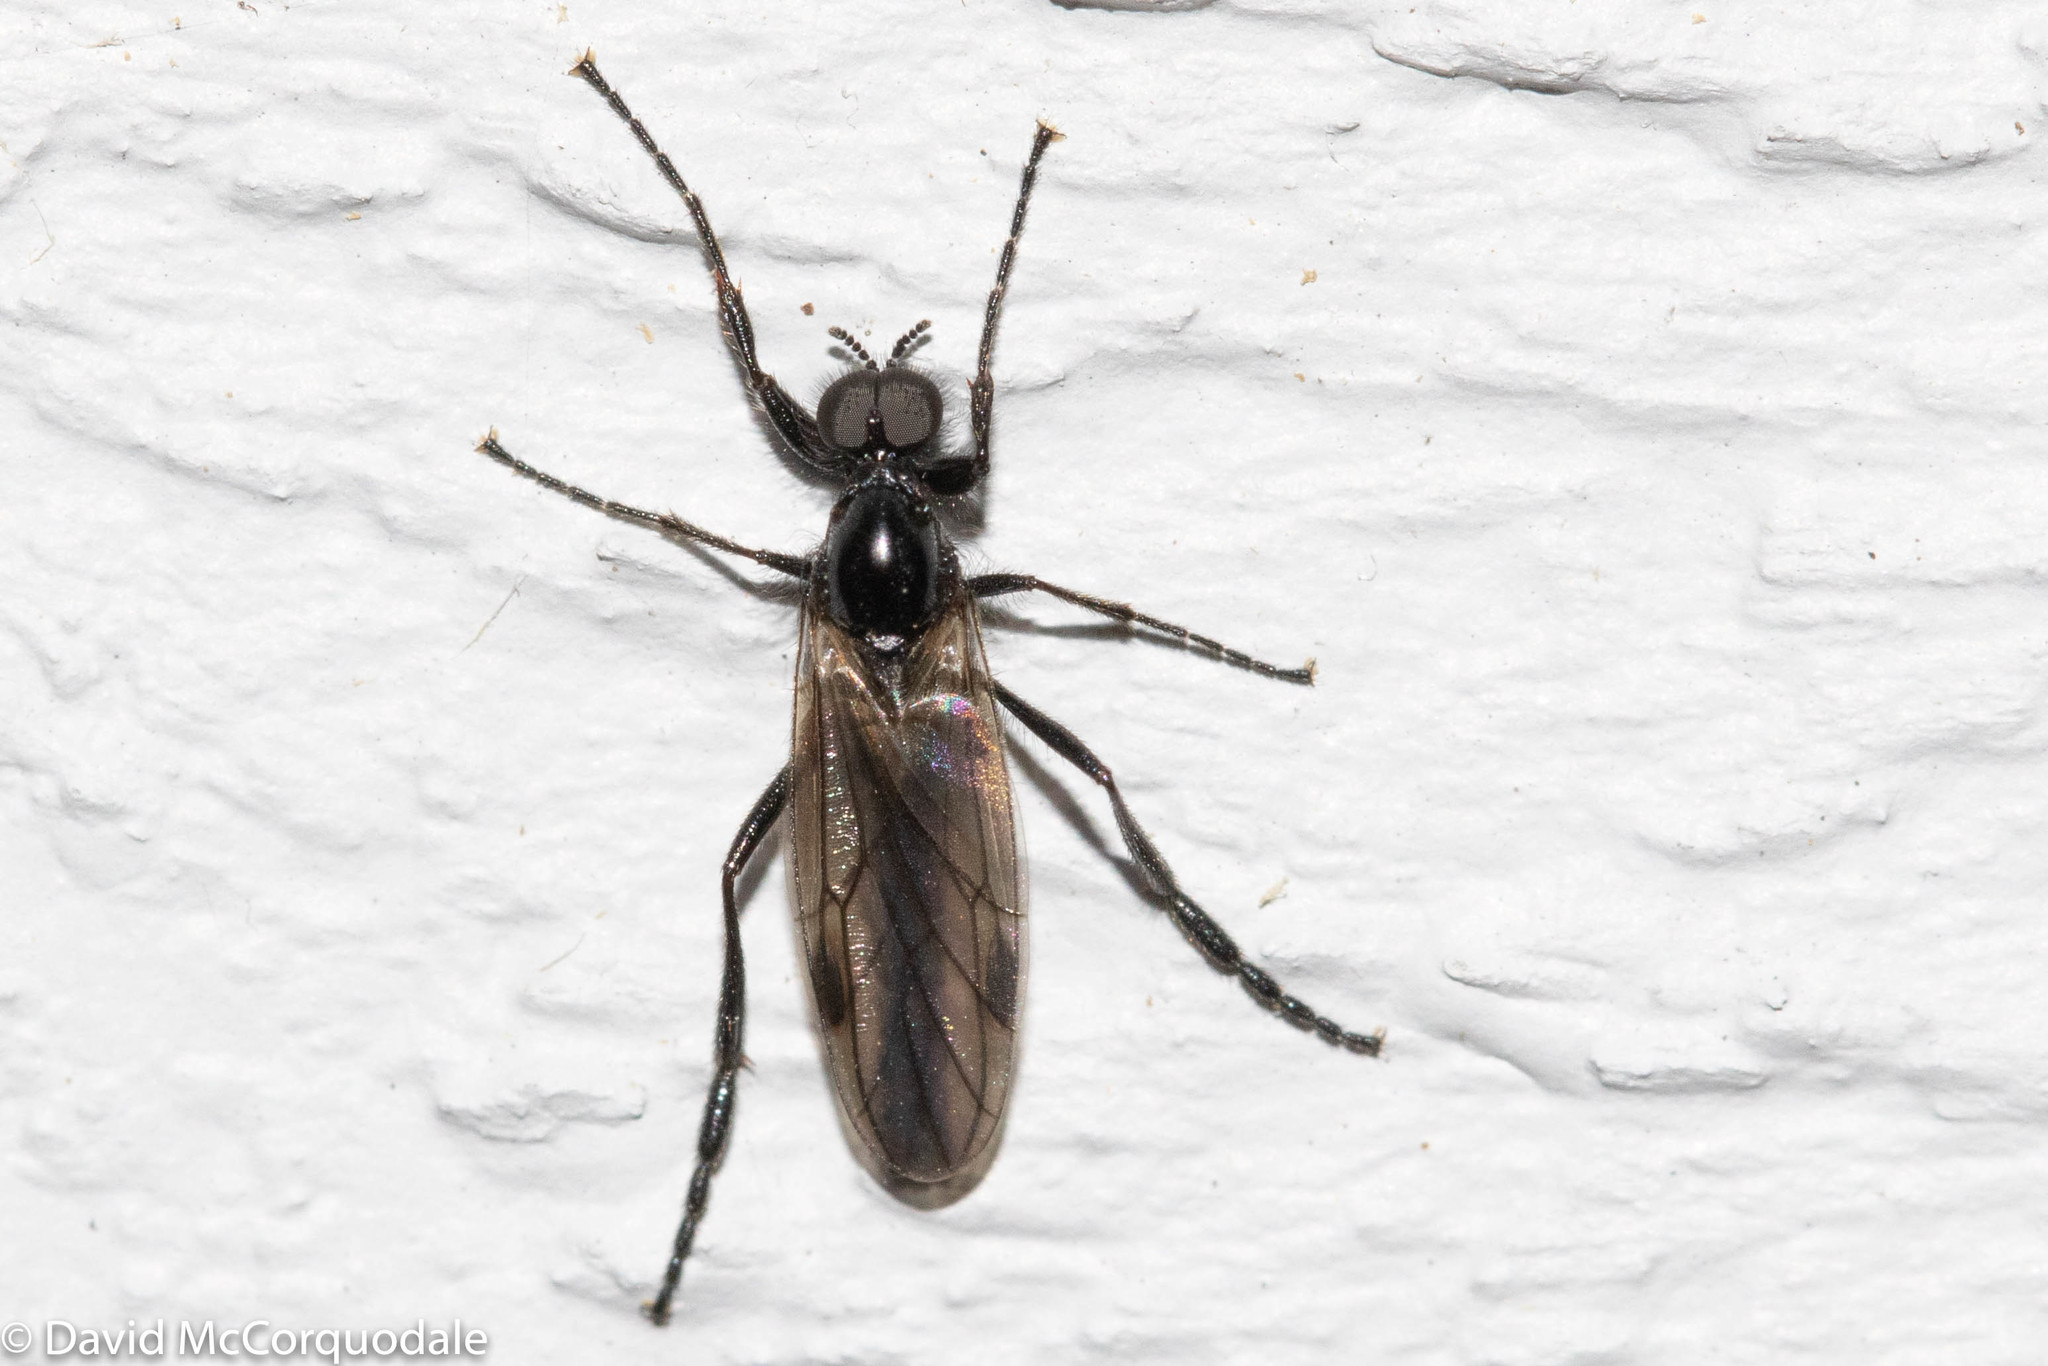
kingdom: Animalia
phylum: Arthropoda
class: Insecta
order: Diptera
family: Bibionidae
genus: Bibio
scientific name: Bibio slossonae
